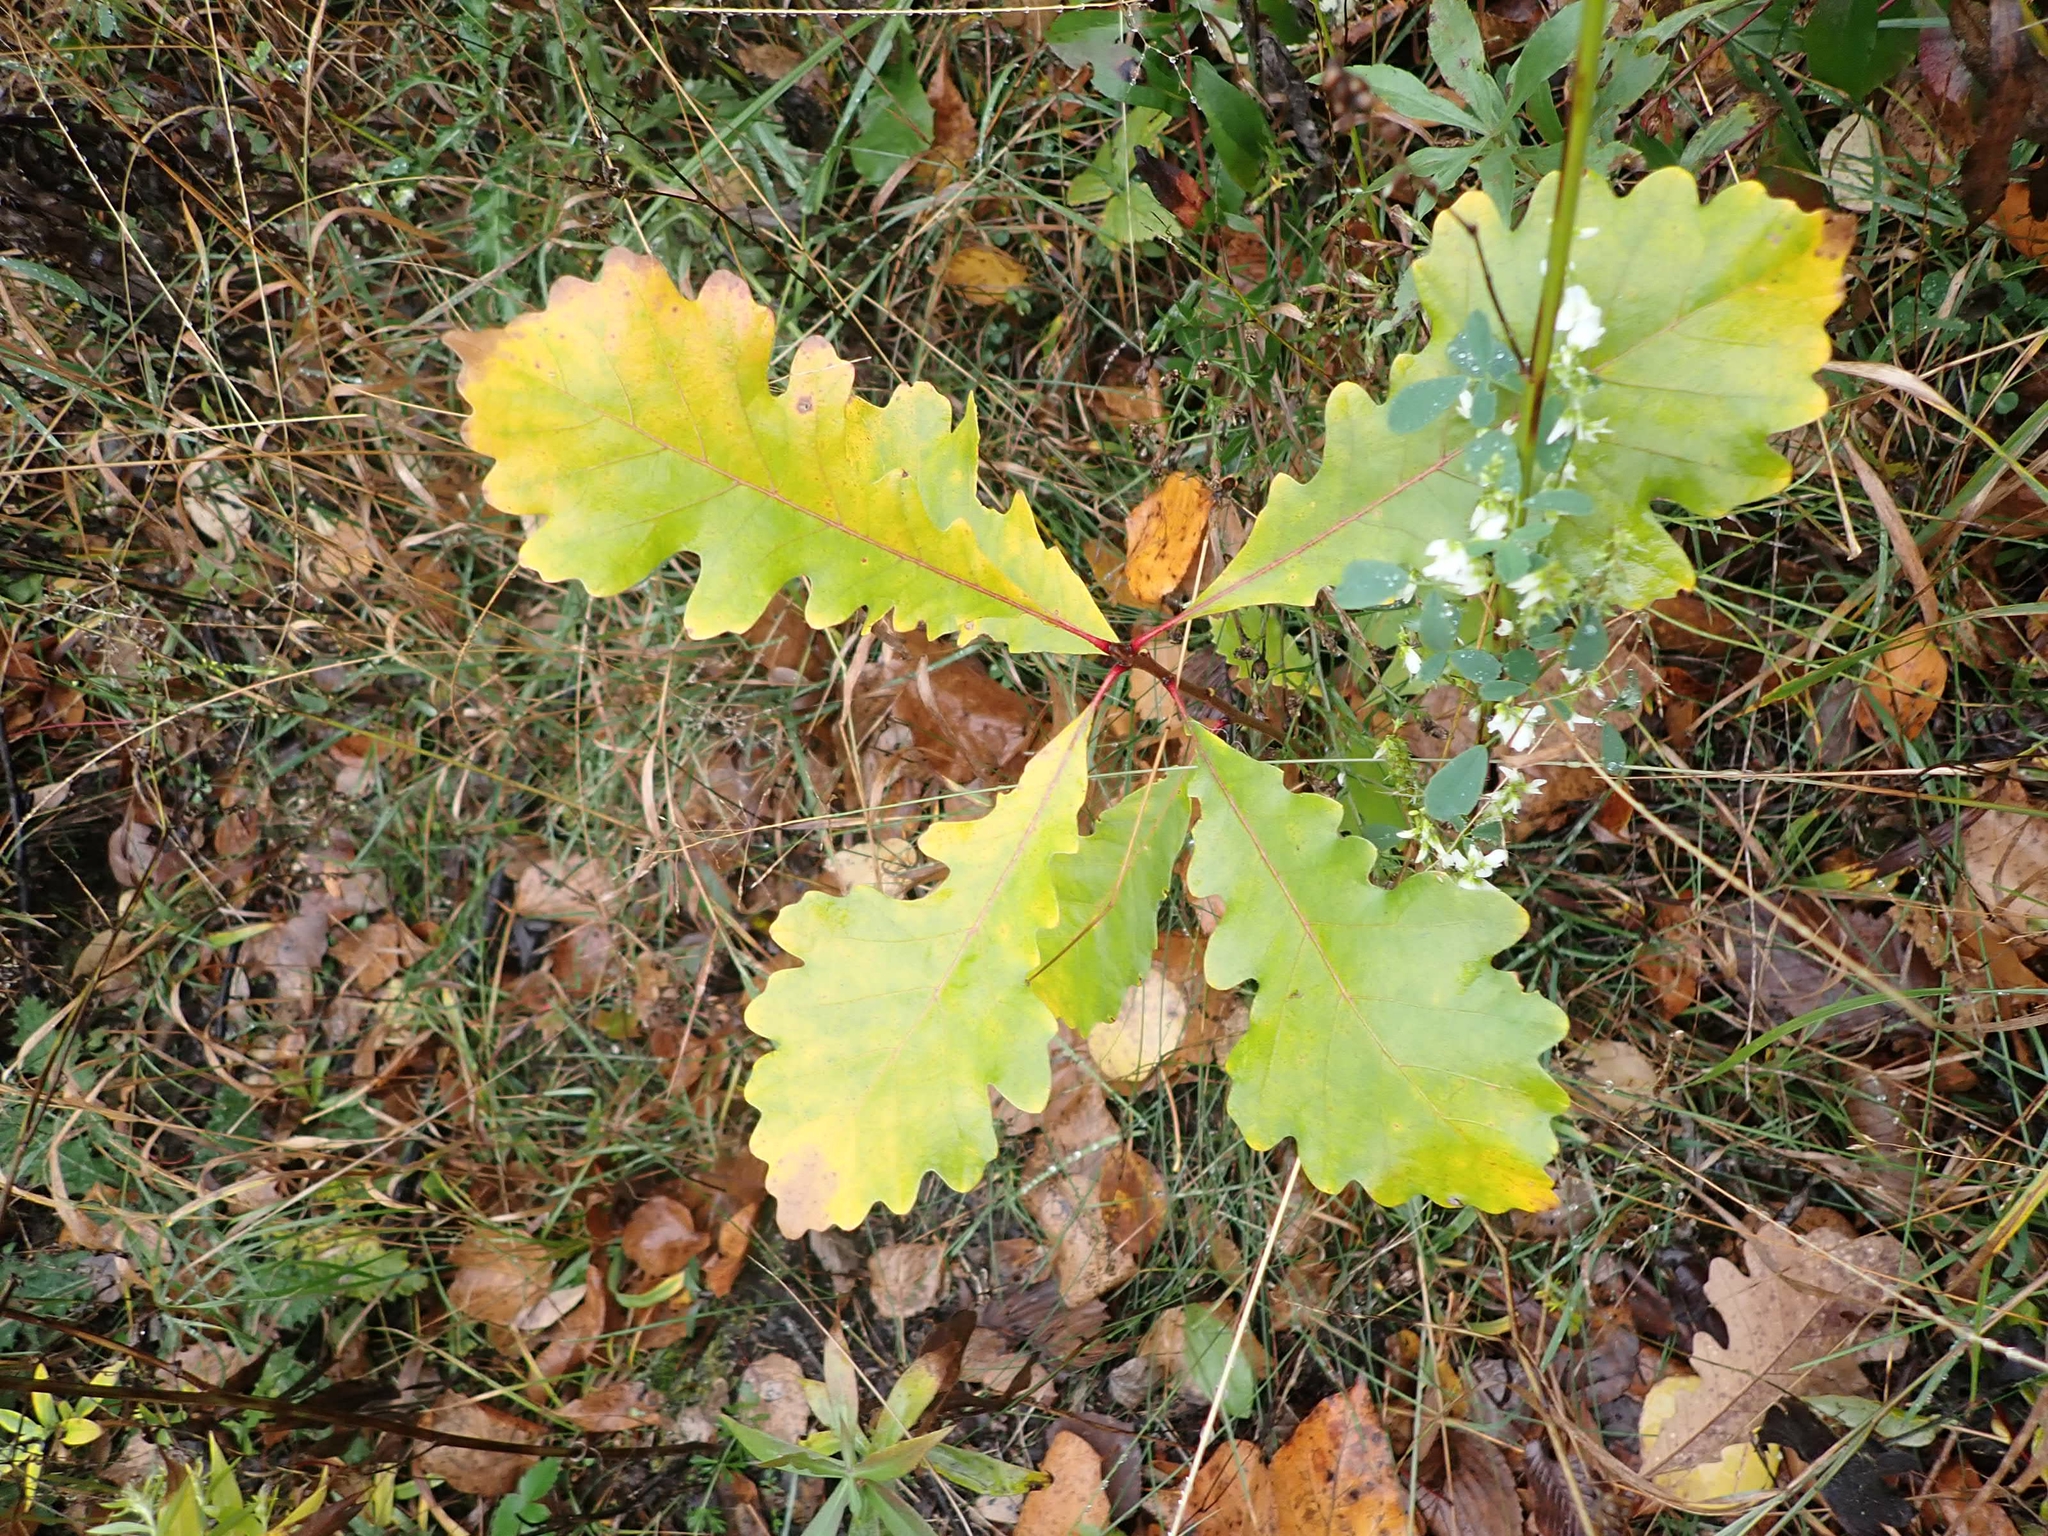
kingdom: Plantae
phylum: Tracheophyta
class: Magnoliopsida
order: Fagales
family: Fagaceae
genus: Quercus
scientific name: Quercus macrocarpa
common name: Bur oak
